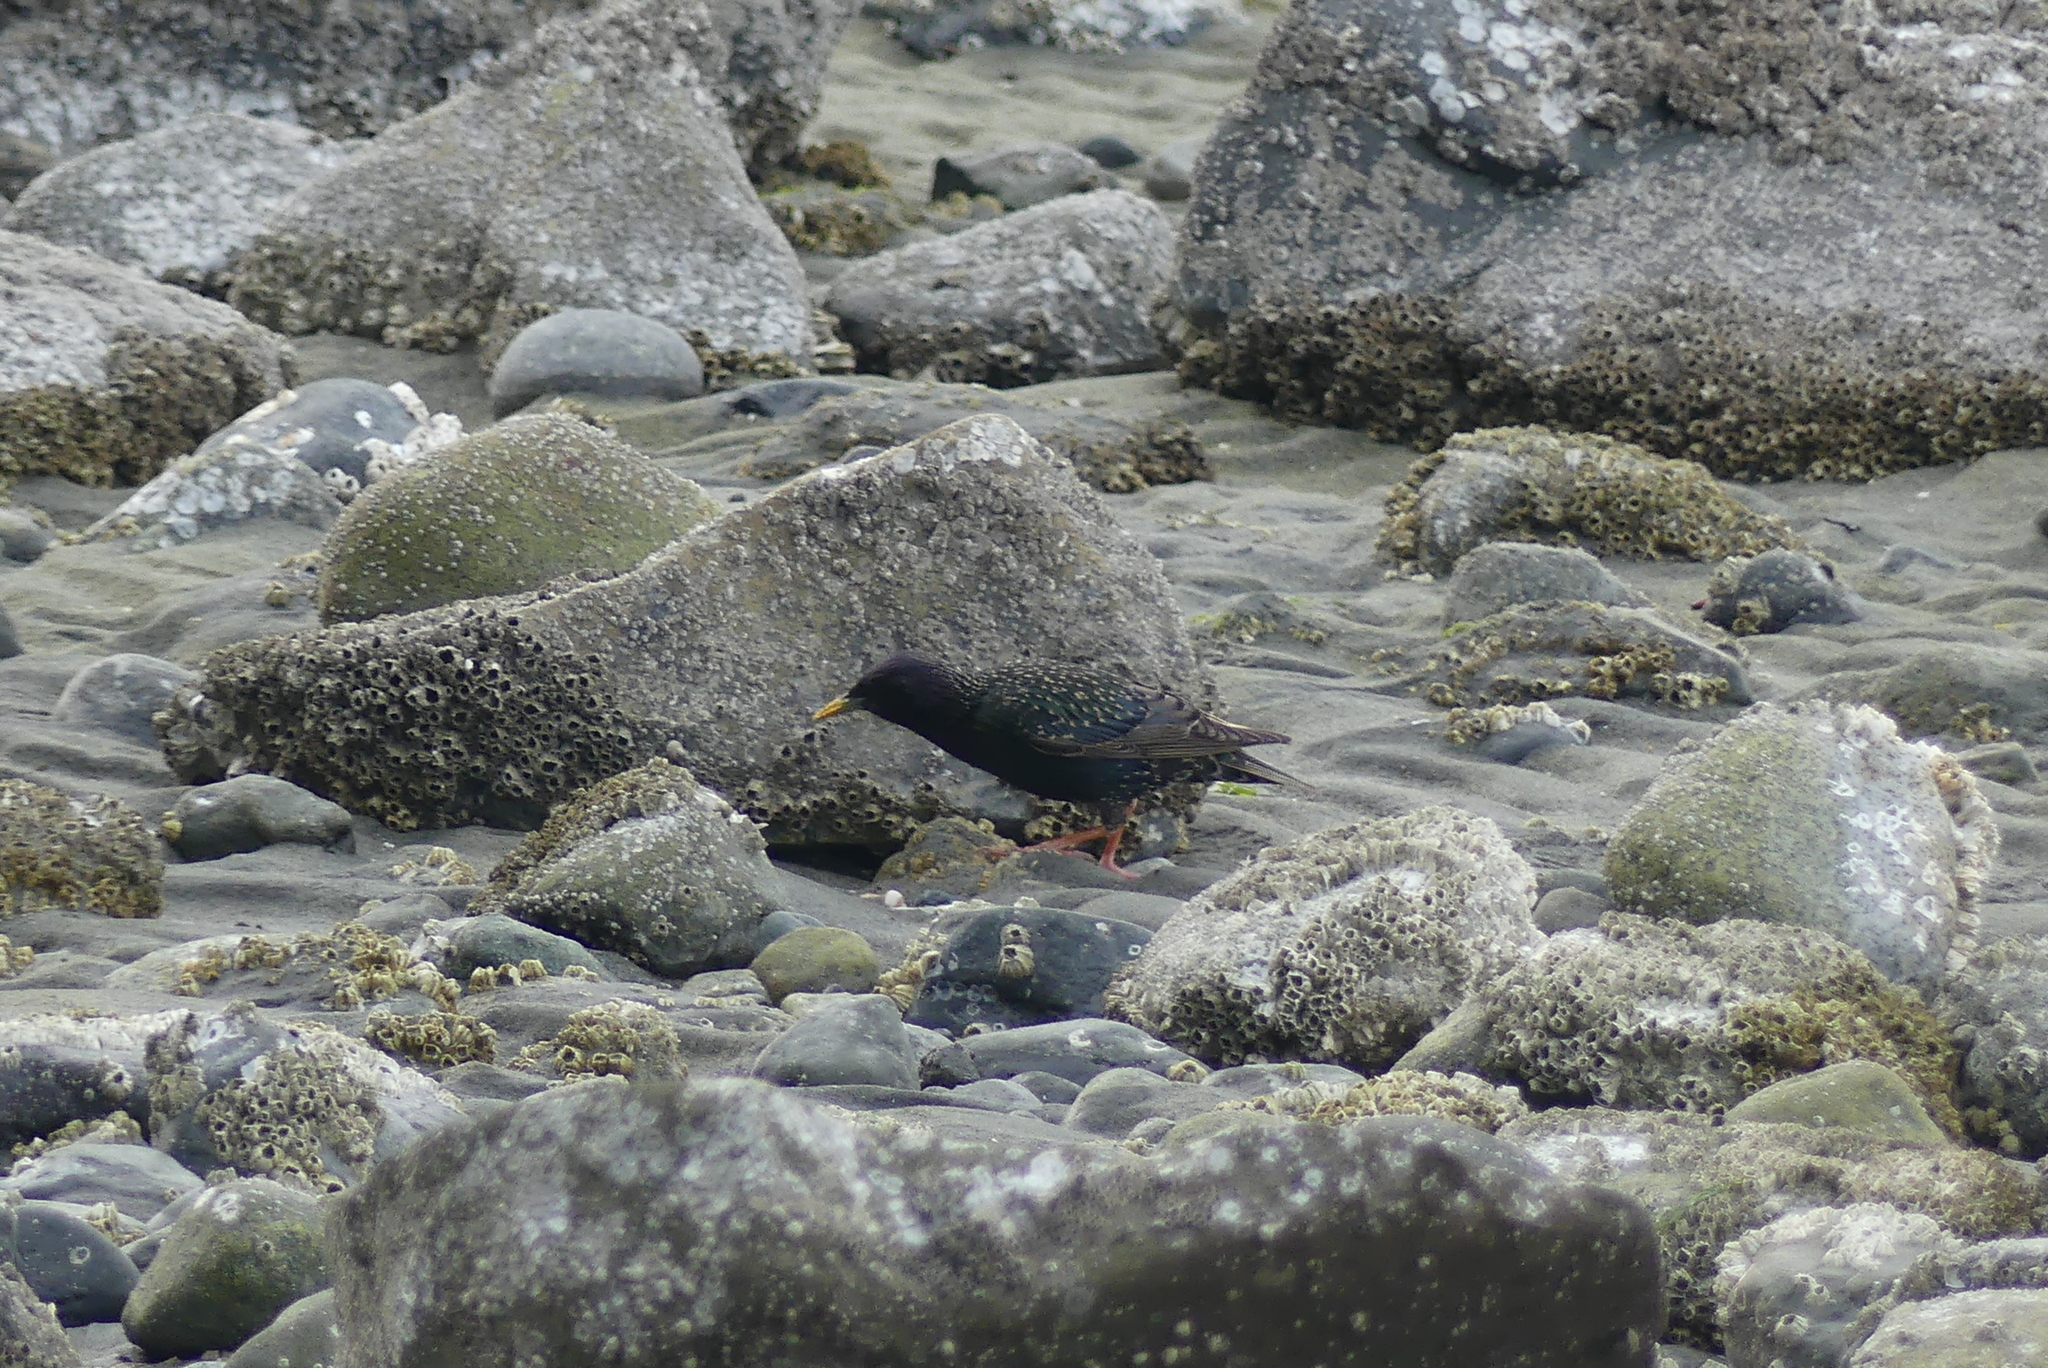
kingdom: Animalia
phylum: Chordata
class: Aves
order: Passeriformes
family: Sturnidae
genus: Sturnus
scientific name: Sturnus vulgaris
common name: Common starling
